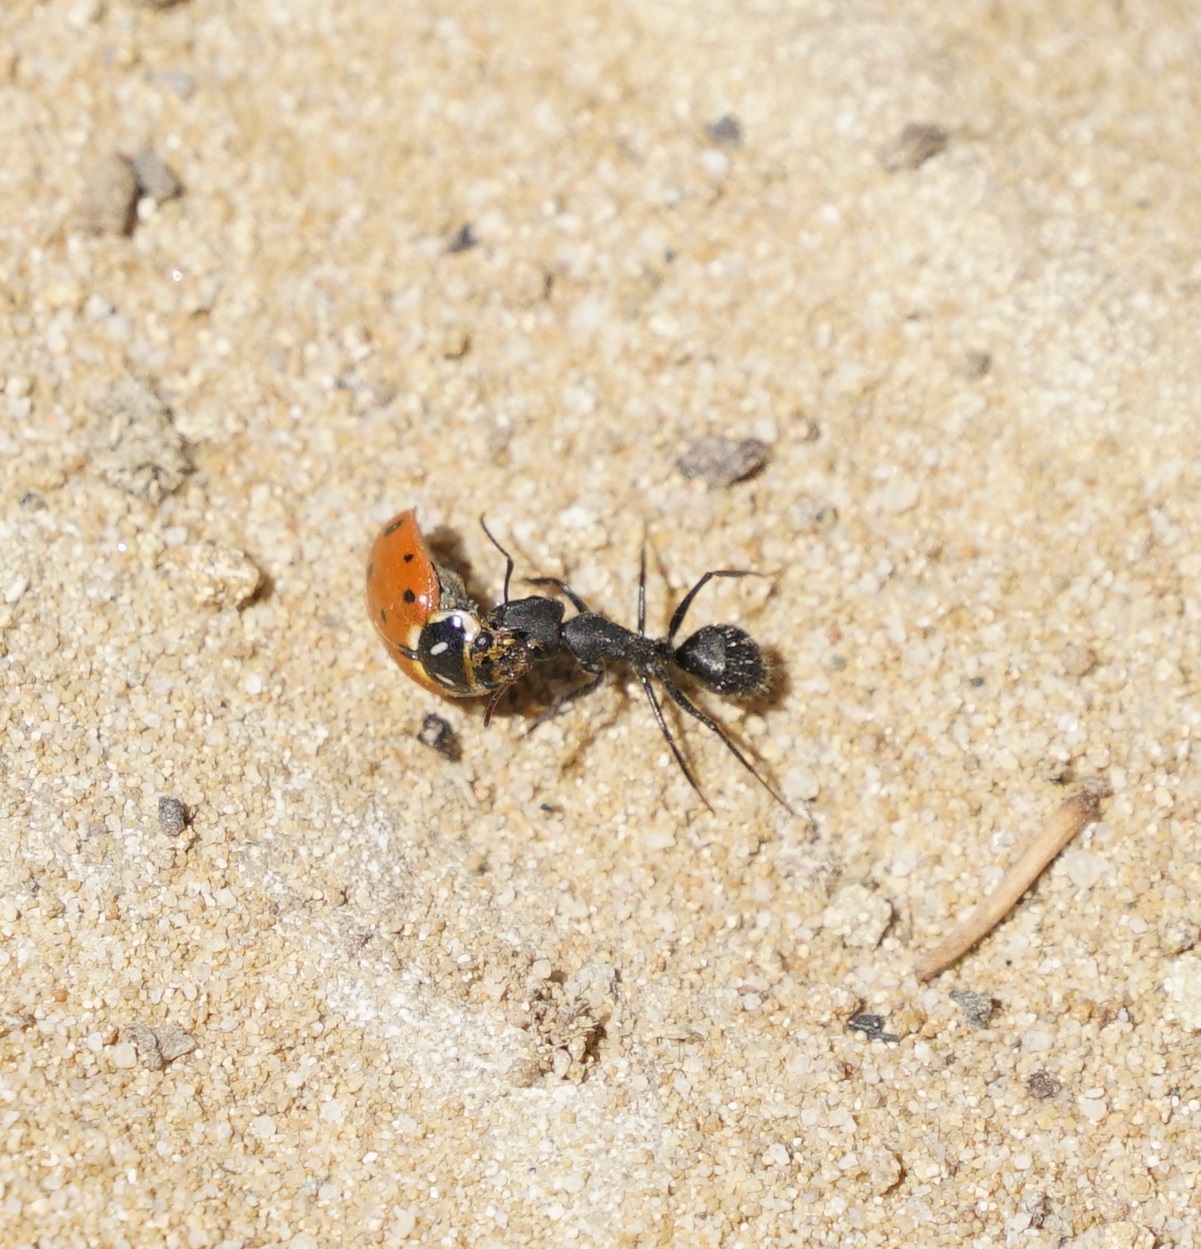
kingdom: Animalia
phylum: Arthropoda
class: Insecta
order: Coleoptera
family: Coccinellidae
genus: Hippodamia
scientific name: Hippodamia convergens
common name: Convergent lady beetle
